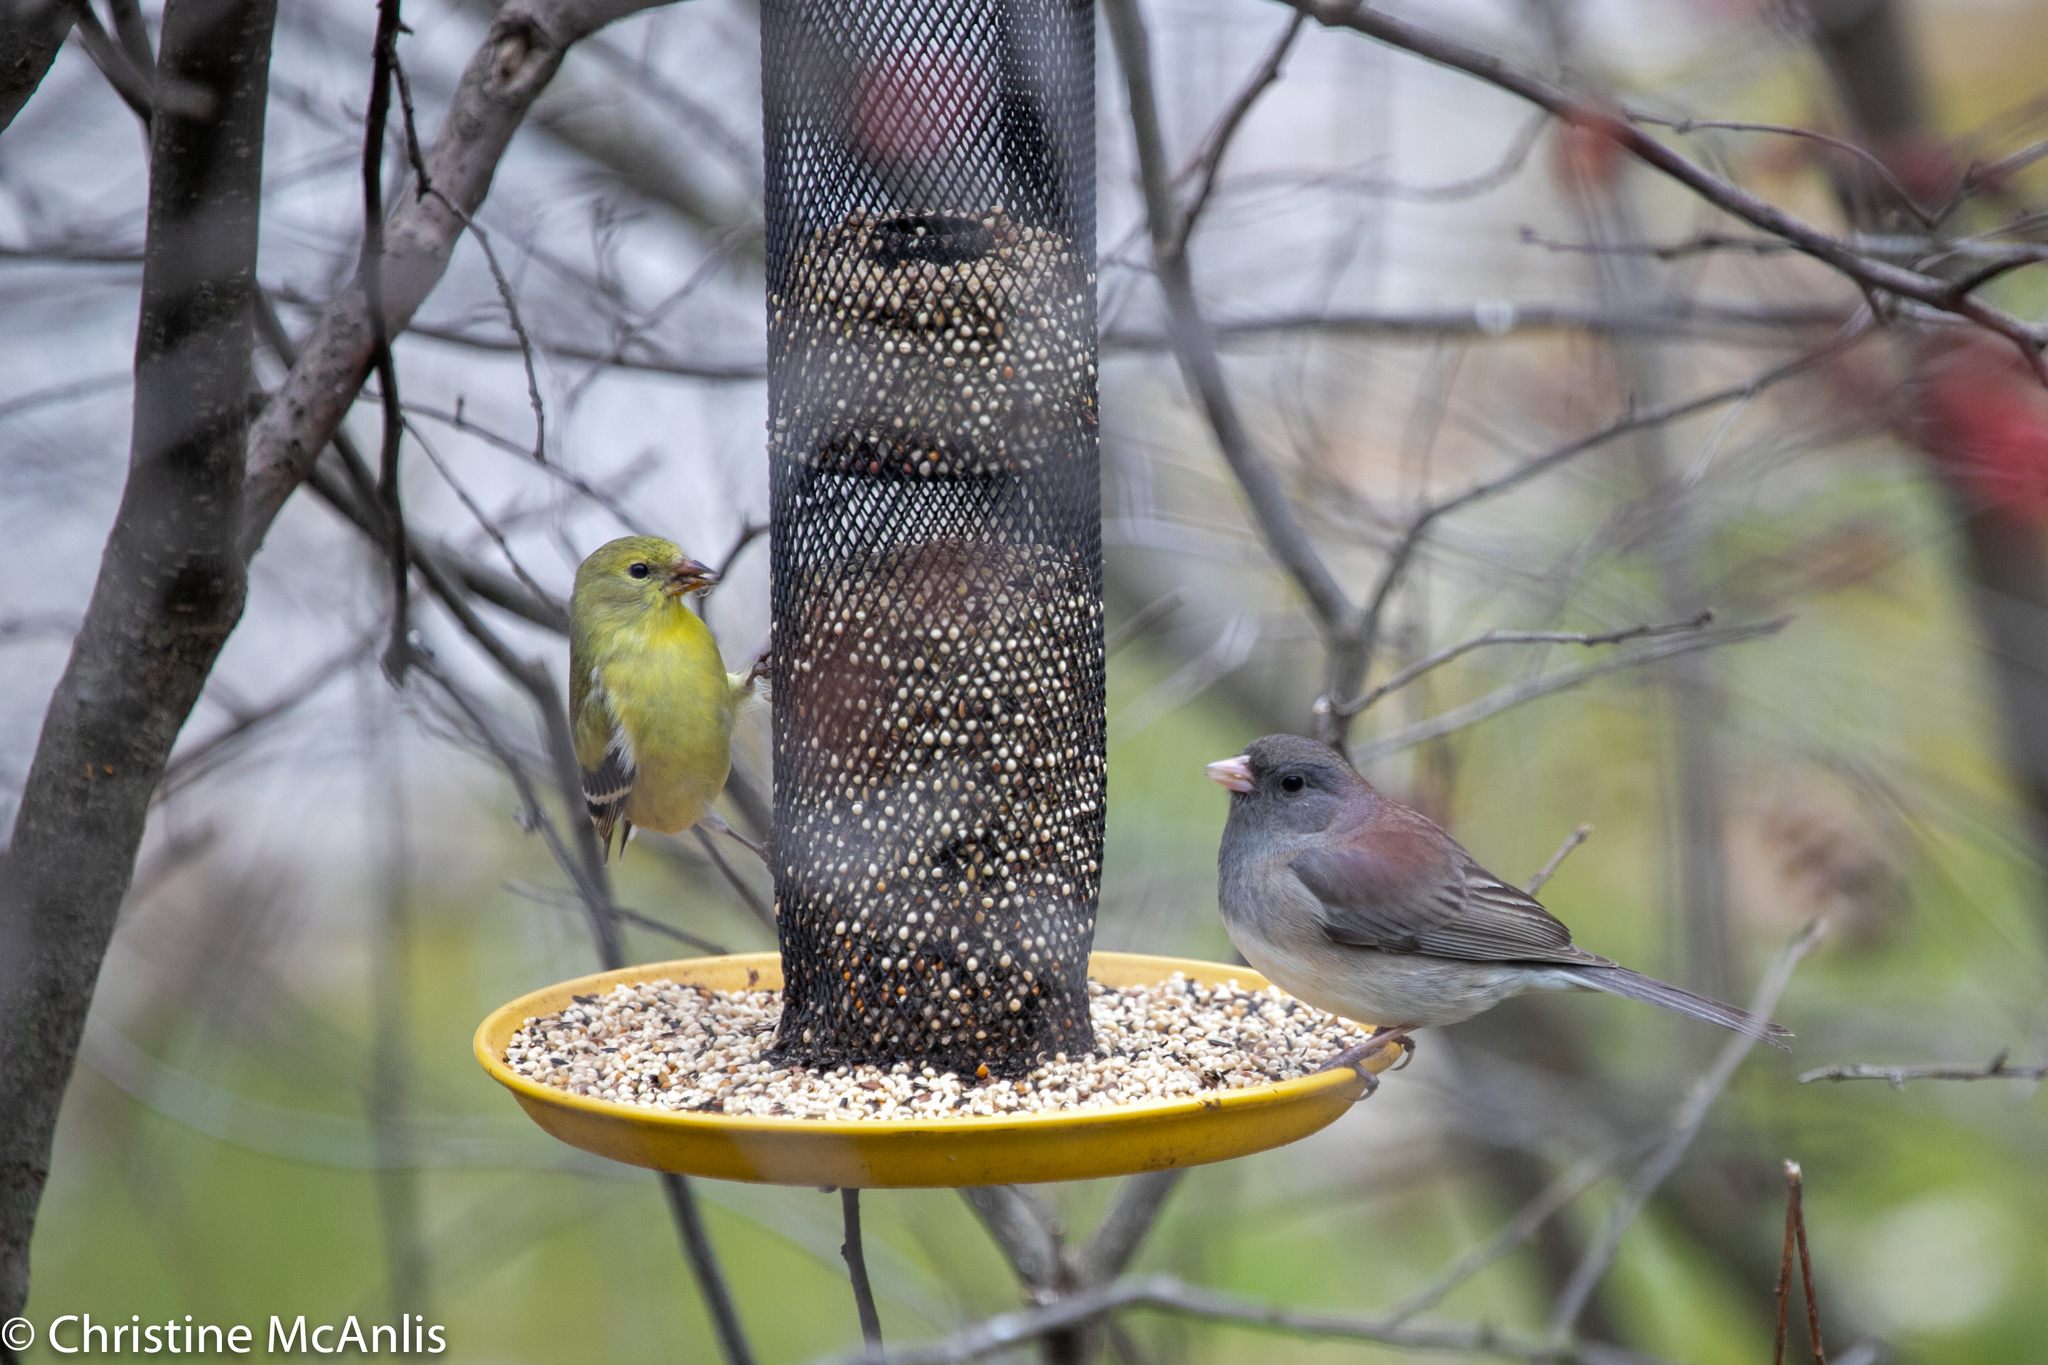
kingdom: Animalia
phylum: Chordata
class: Aves
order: Passeriformes
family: Passerellidae
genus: Junco
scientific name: Junco hyemalis
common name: Dark-eyed junco
